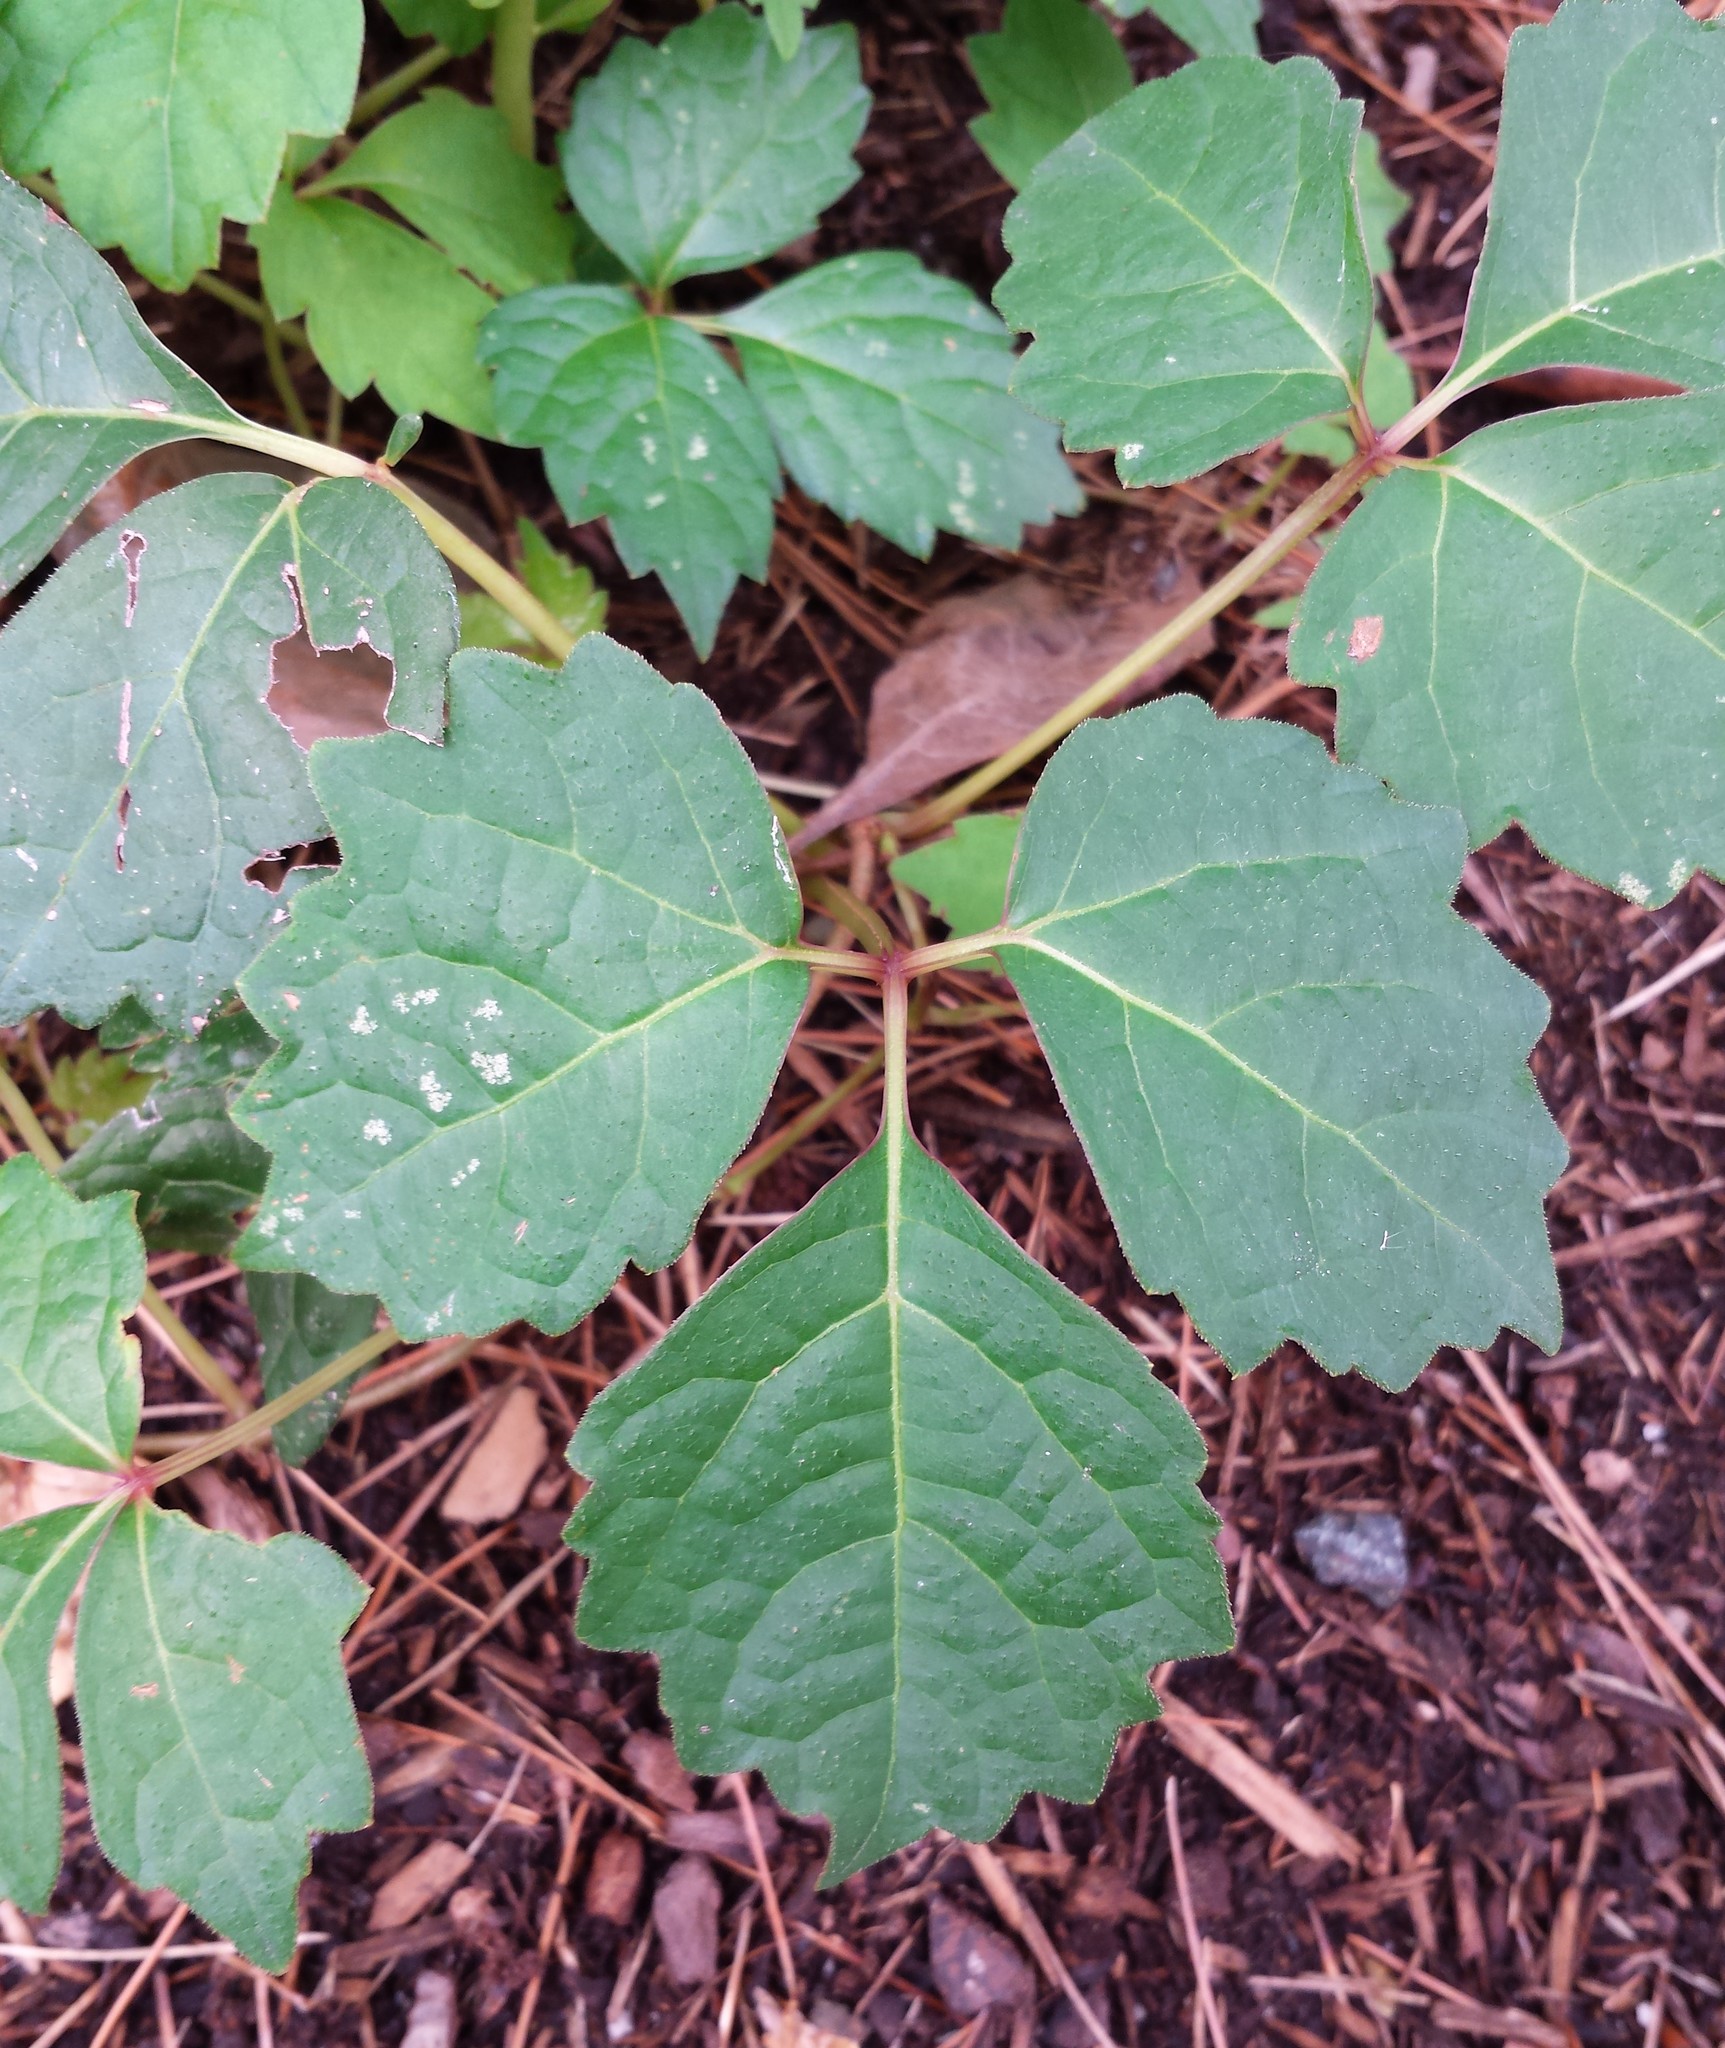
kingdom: Plantae
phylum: Tracheophyta
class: Magnoliopsida
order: Vitales
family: Vitaceae
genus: Parthenocissus
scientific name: Parthenocissus tricuspidata
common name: Boston ivy
